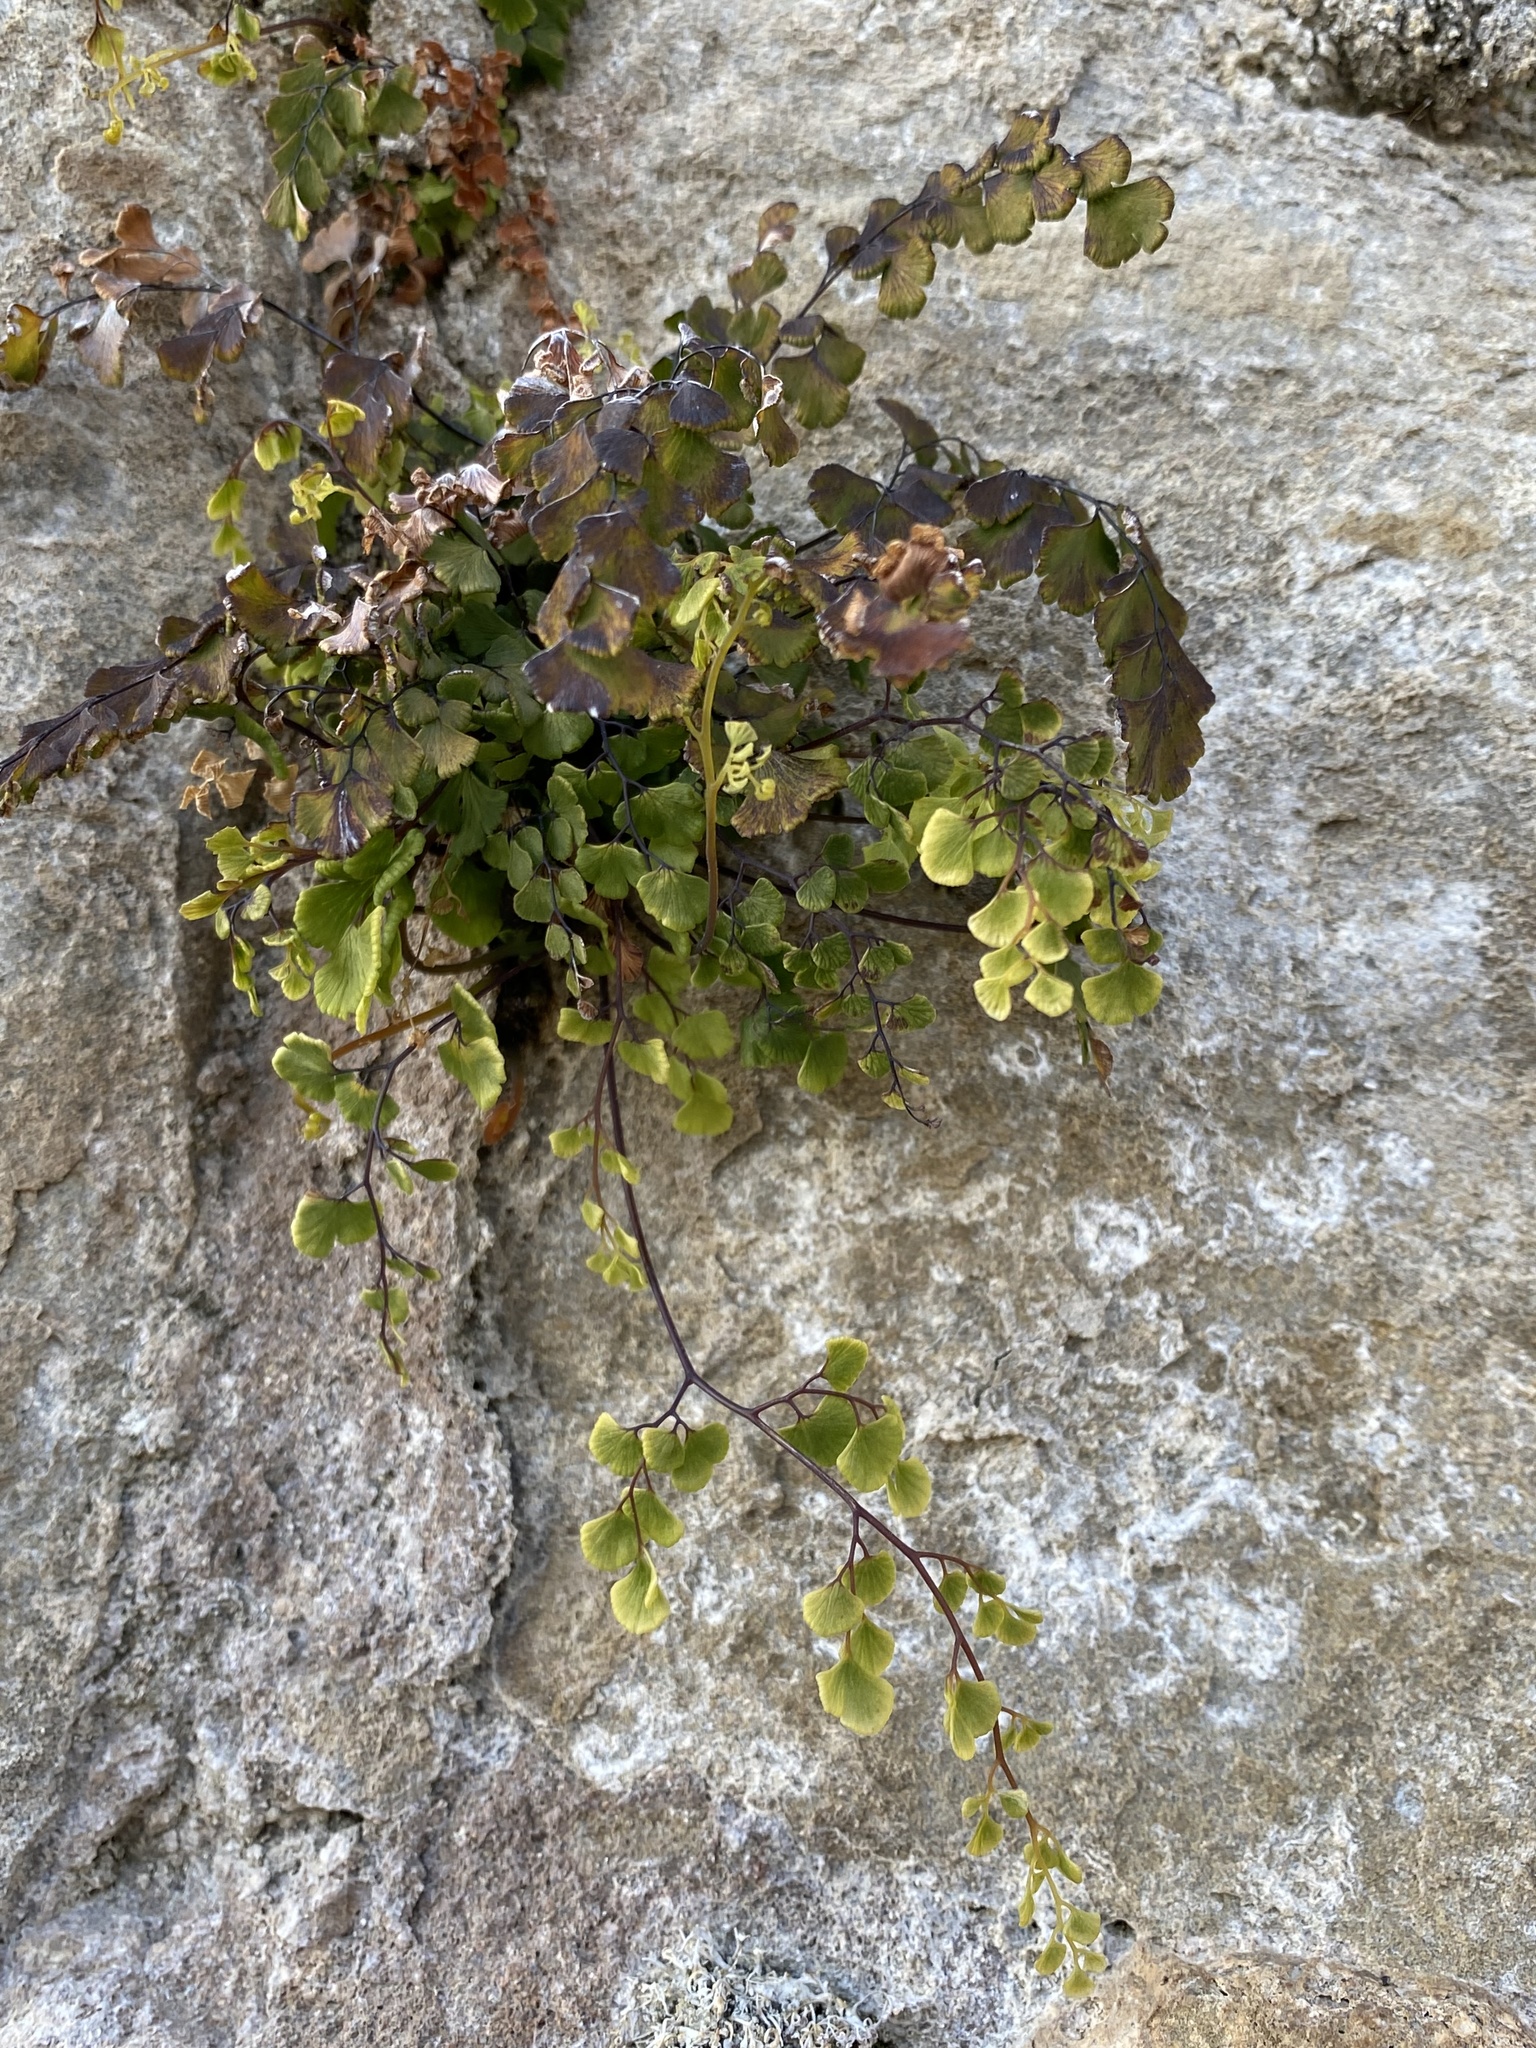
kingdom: Plantae
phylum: Tracheophyta
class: Polypodiopsida
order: Polypodiales
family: Pteridaceae
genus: Adiantum
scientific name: Adiantum capillus-veneris
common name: Maidenhair fern
